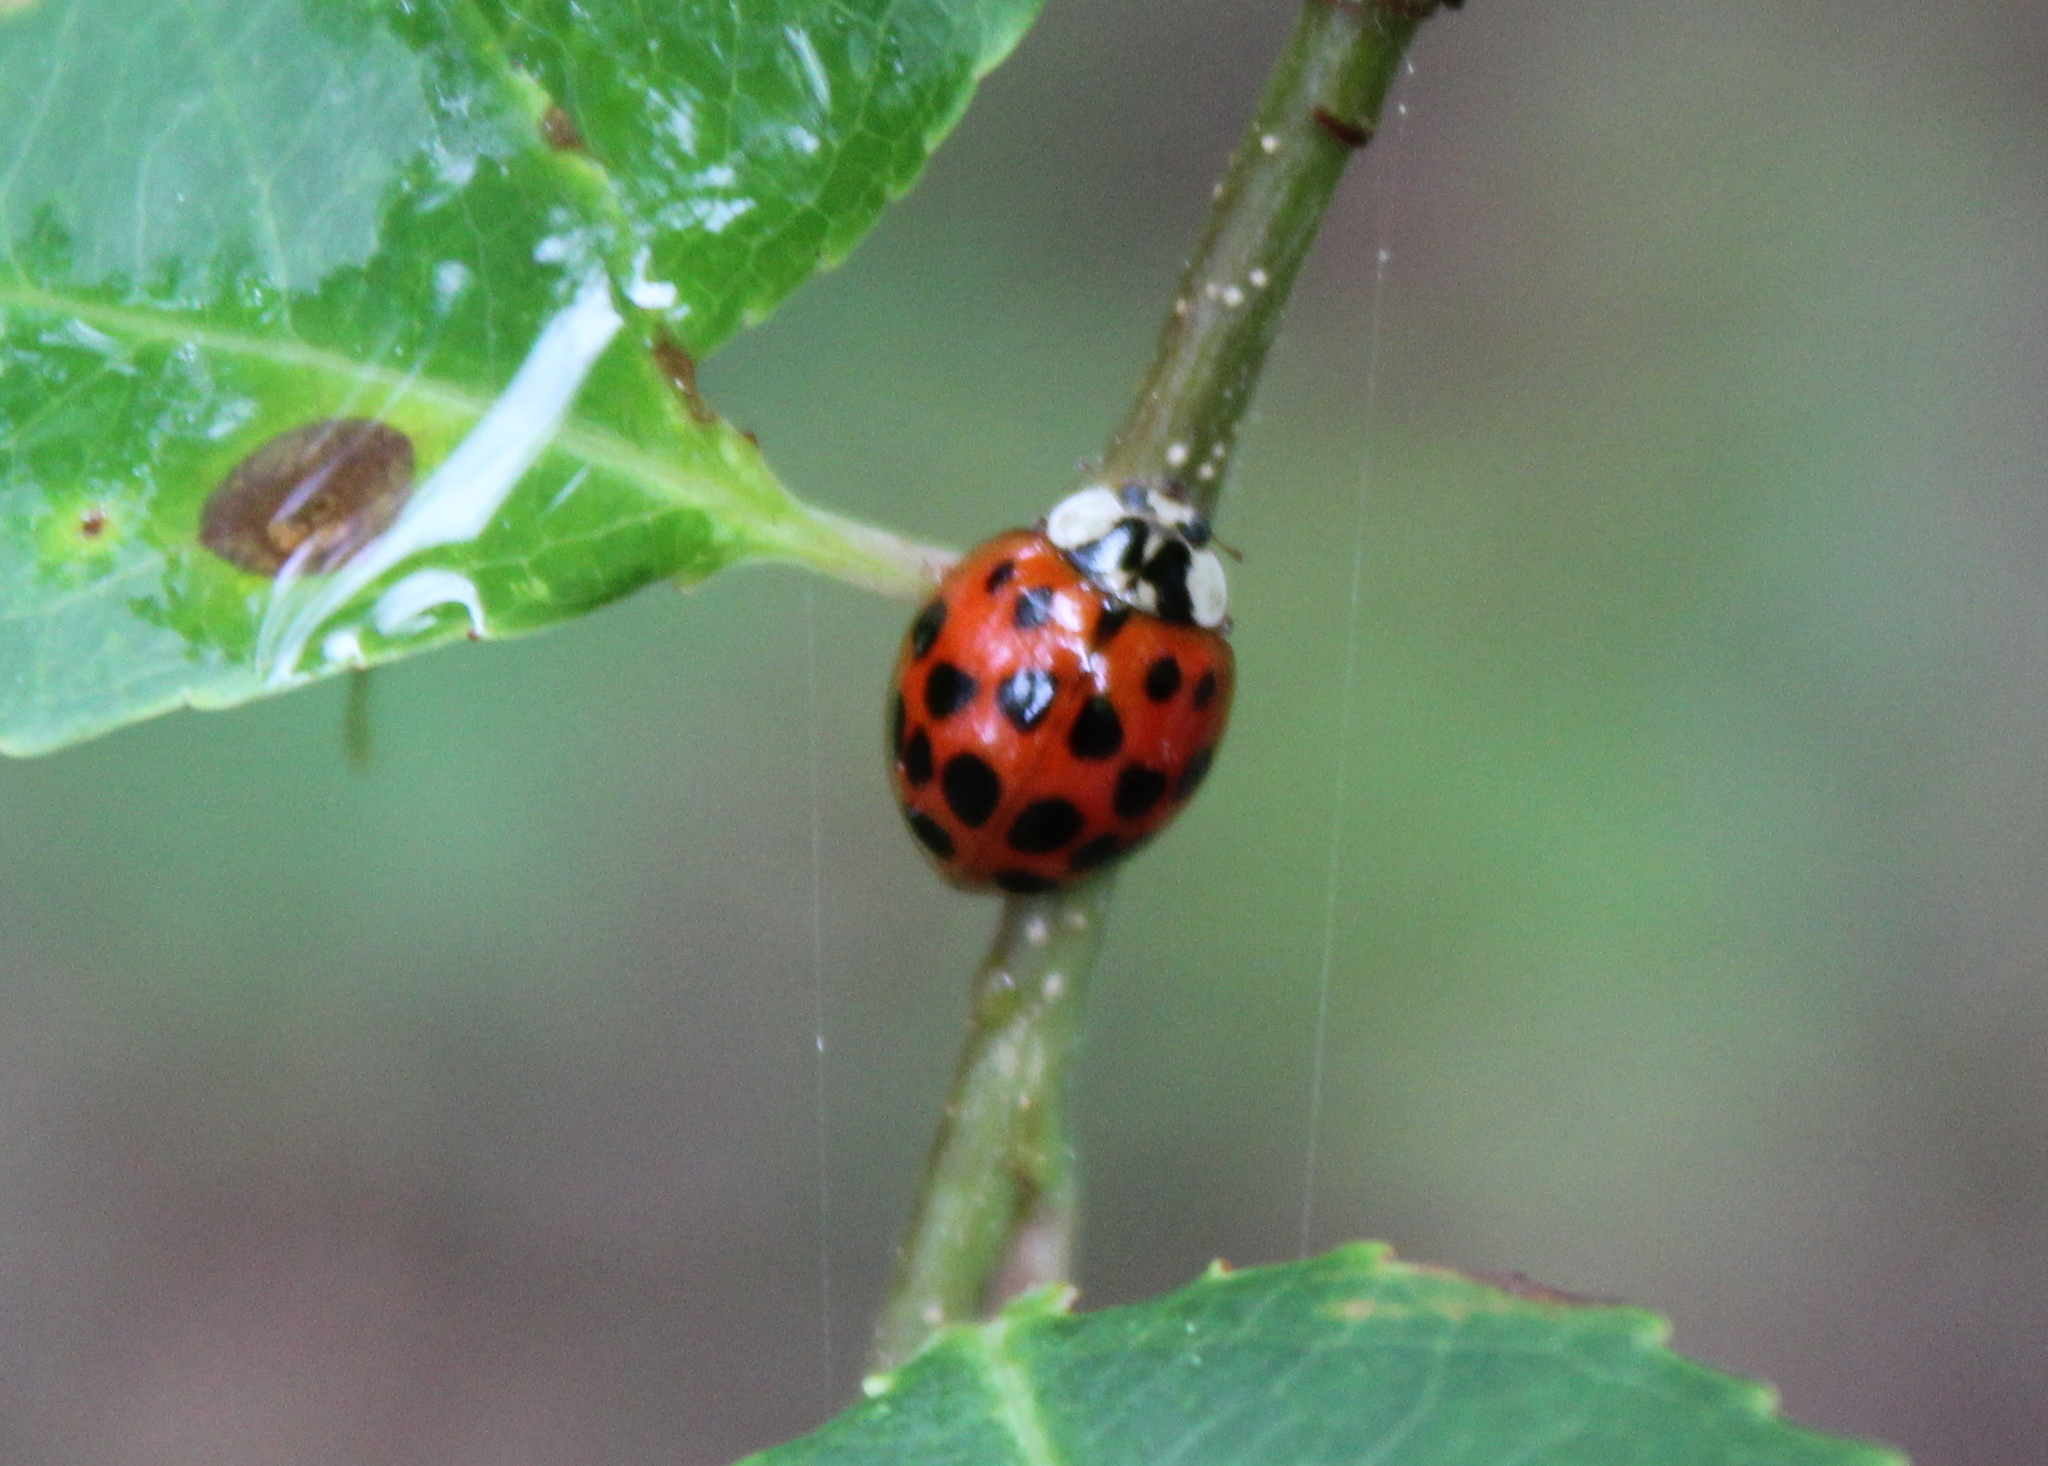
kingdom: Animalia
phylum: Arthropoda
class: Insecta
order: Coleoptera
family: Coccinellidae
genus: Harmonia
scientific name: Harmonia axyridis
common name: Harlequin ladybird
